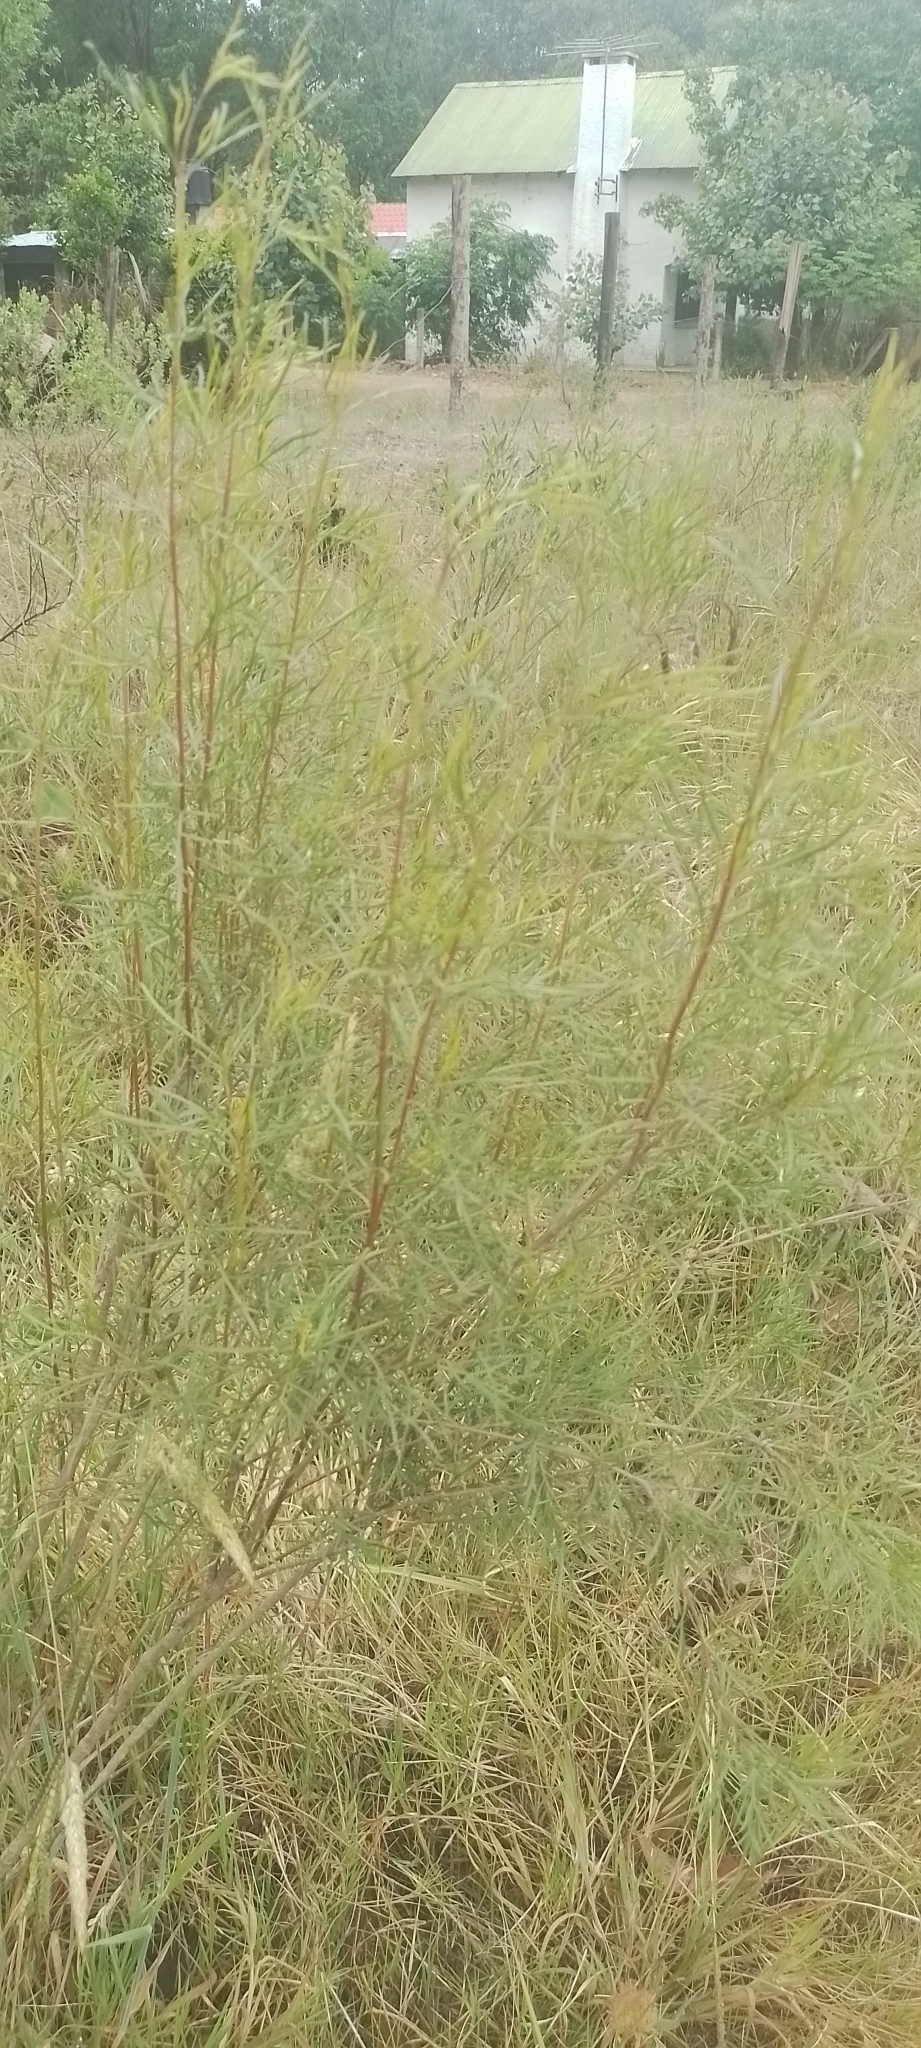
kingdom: Plantae
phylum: Tracheophyta
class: Magnoliopsida
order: Asterales
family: Asteraceae
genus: Acanthostyles
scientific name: Acanthostyles buniifolius
